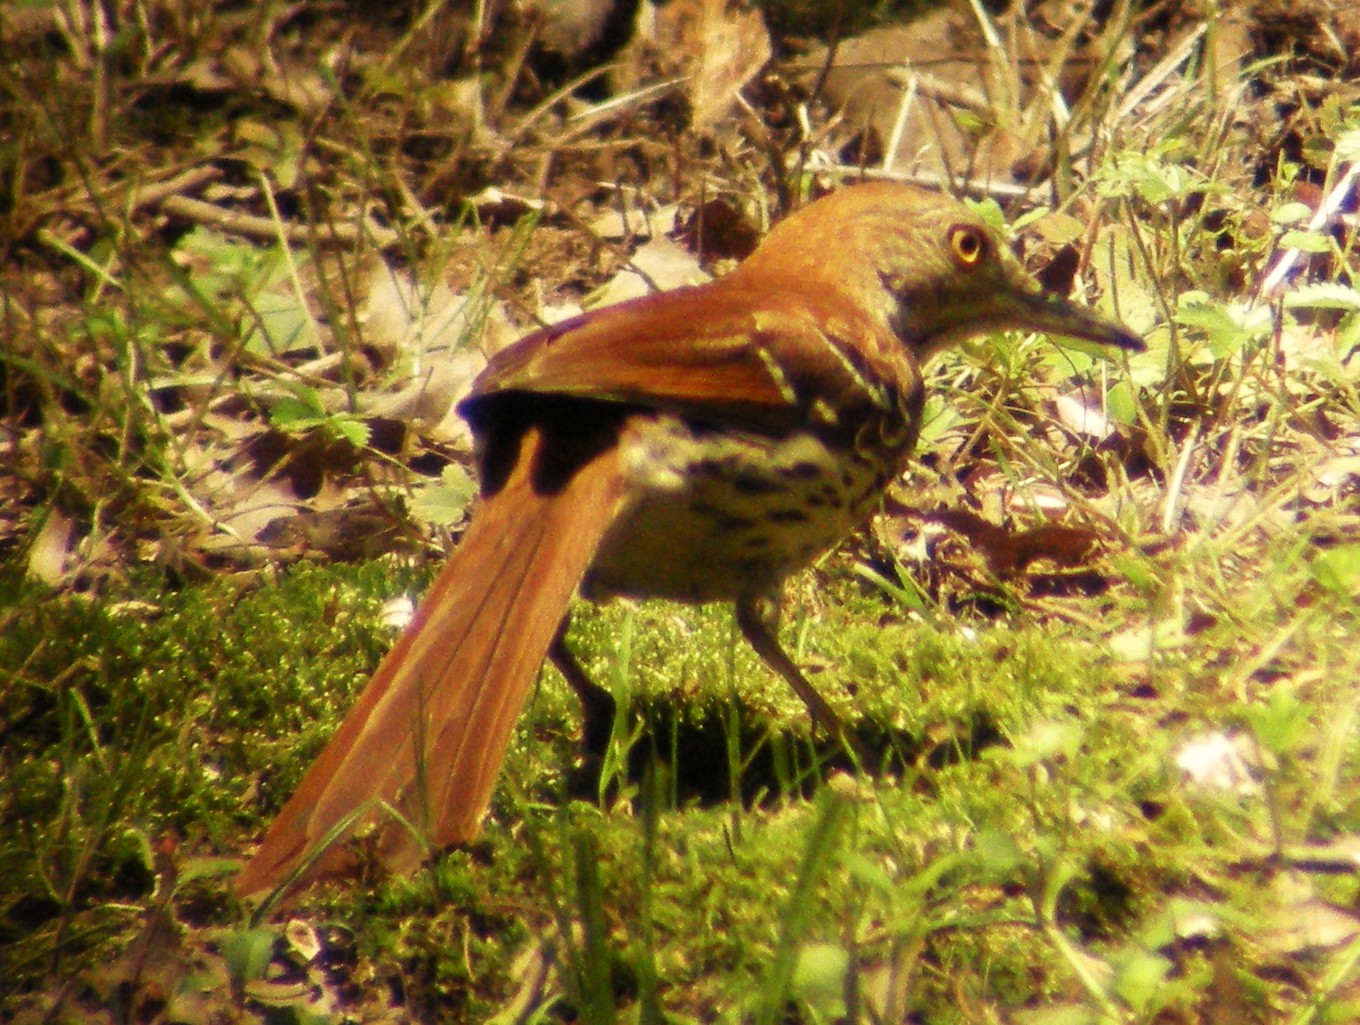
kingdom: Animalia
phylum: Chordata
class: Aves
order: Passeriformes
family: Mimidae
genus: Toxostoma
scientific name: Toxostoma rufum
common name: Brown thrasher
